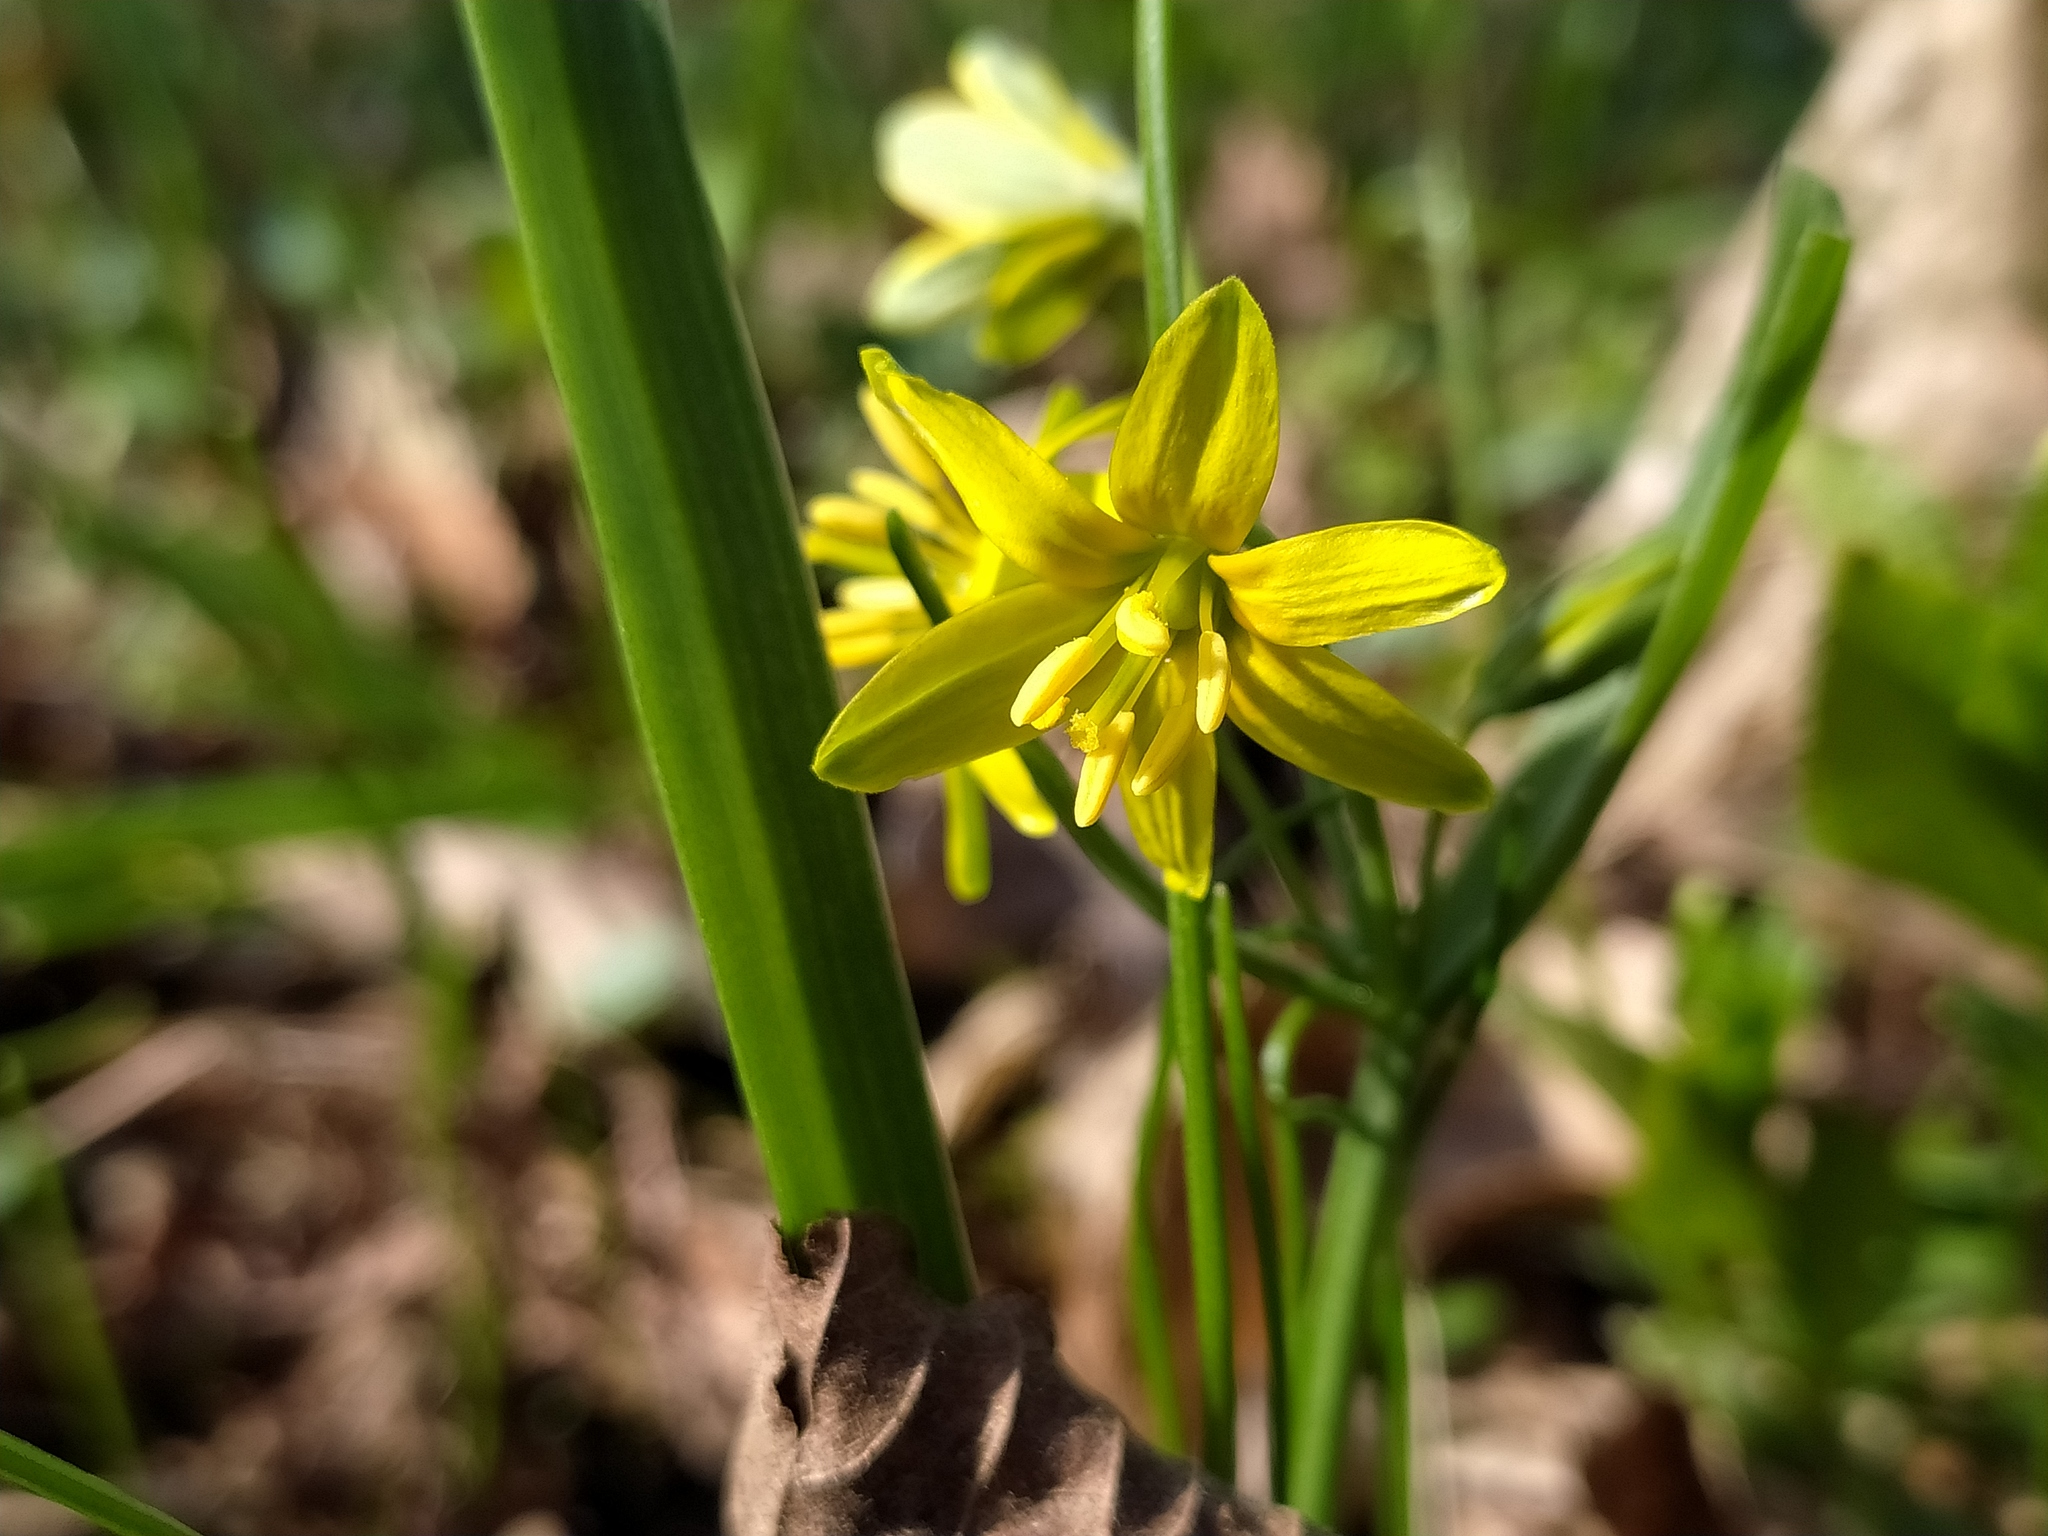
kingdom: Plantae
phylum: Tracheophyta
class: Liliopsida
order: Liliales
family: Liliaceae
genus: Gagea
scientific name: Gagea lutea
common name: Yellow star-of-bethlehem
